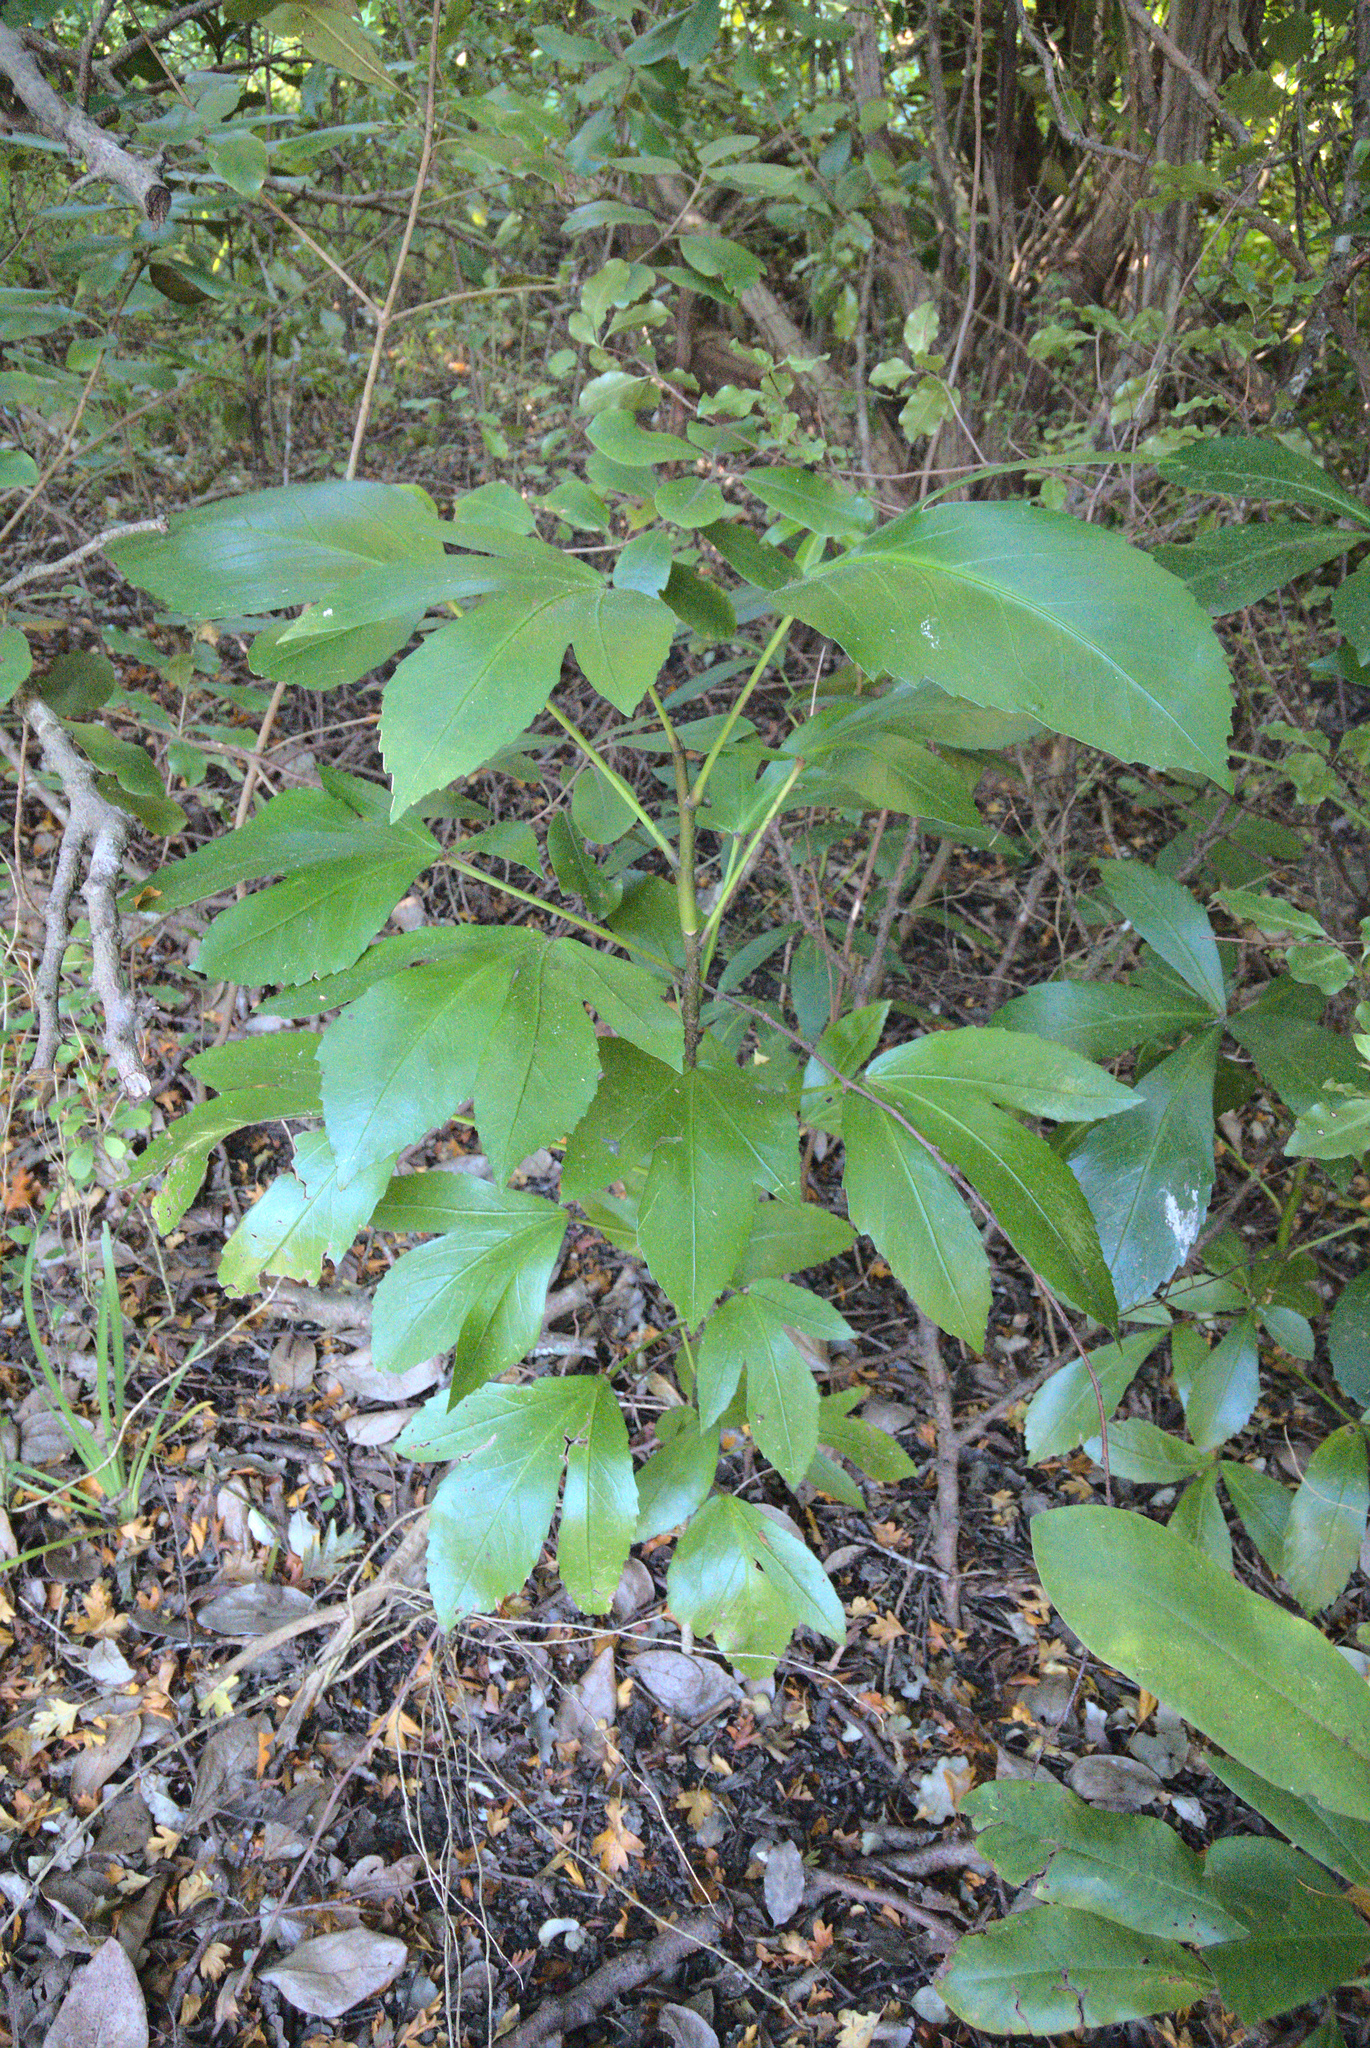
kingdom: Plantae
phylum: Tracheophyta
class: Magnoliopsida
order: Apiales
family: Araliaceae
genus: Pseudopanax
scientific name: Pseudopanax lessonii
